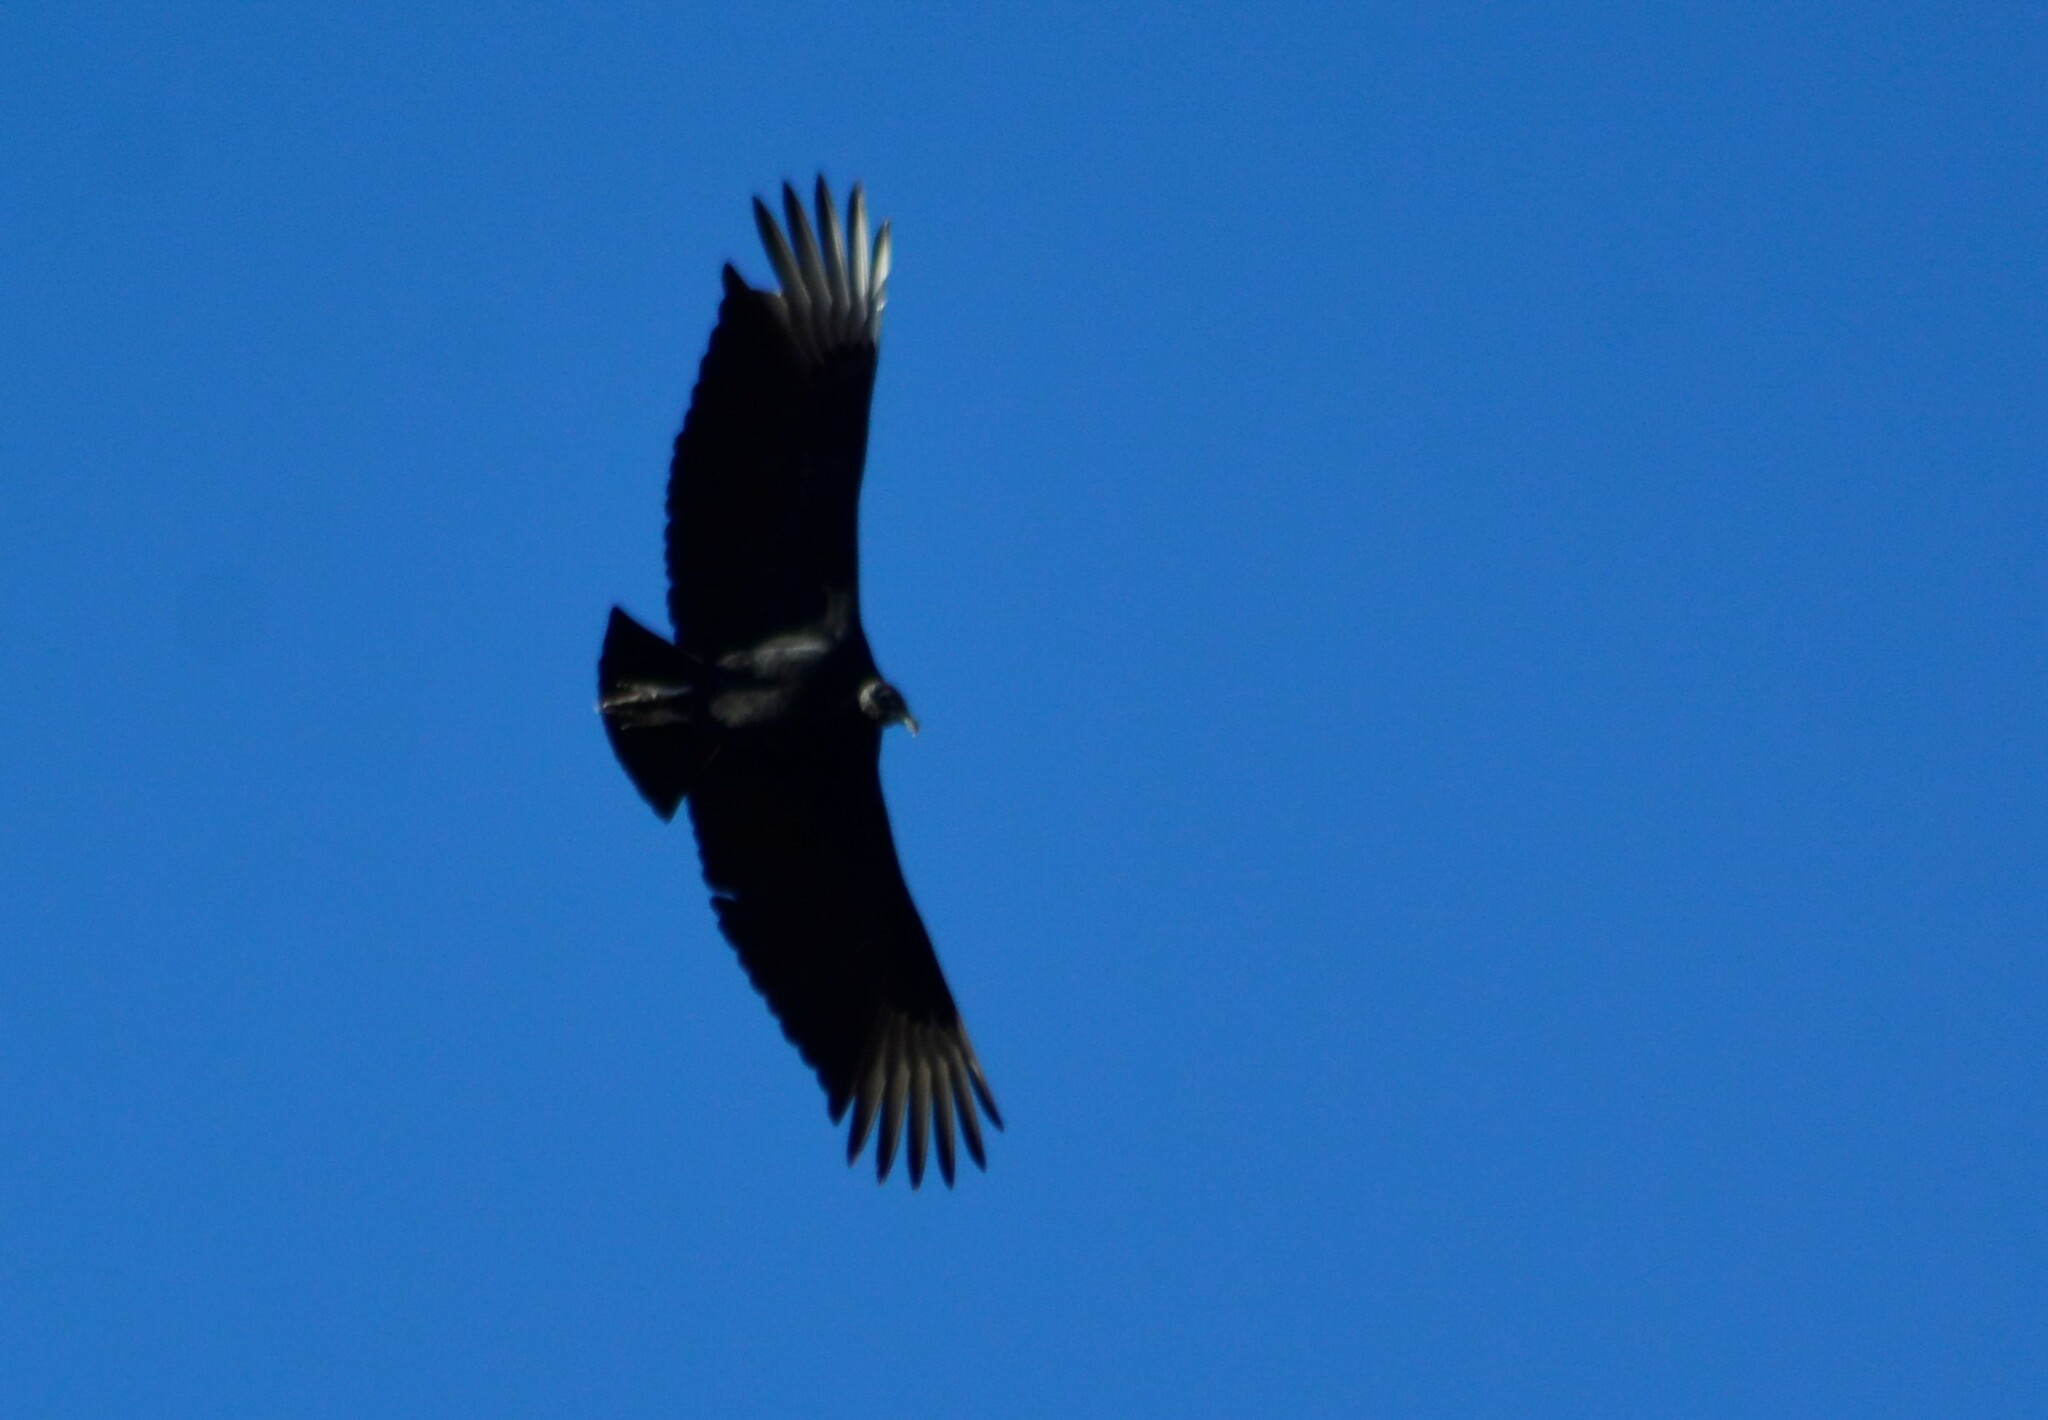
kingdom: Animalia
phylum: Chordata
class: Aves
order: Accipitriformes
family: Cathartidae
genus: Coragyps
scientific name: Coragyps atratus
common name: Black vulture
